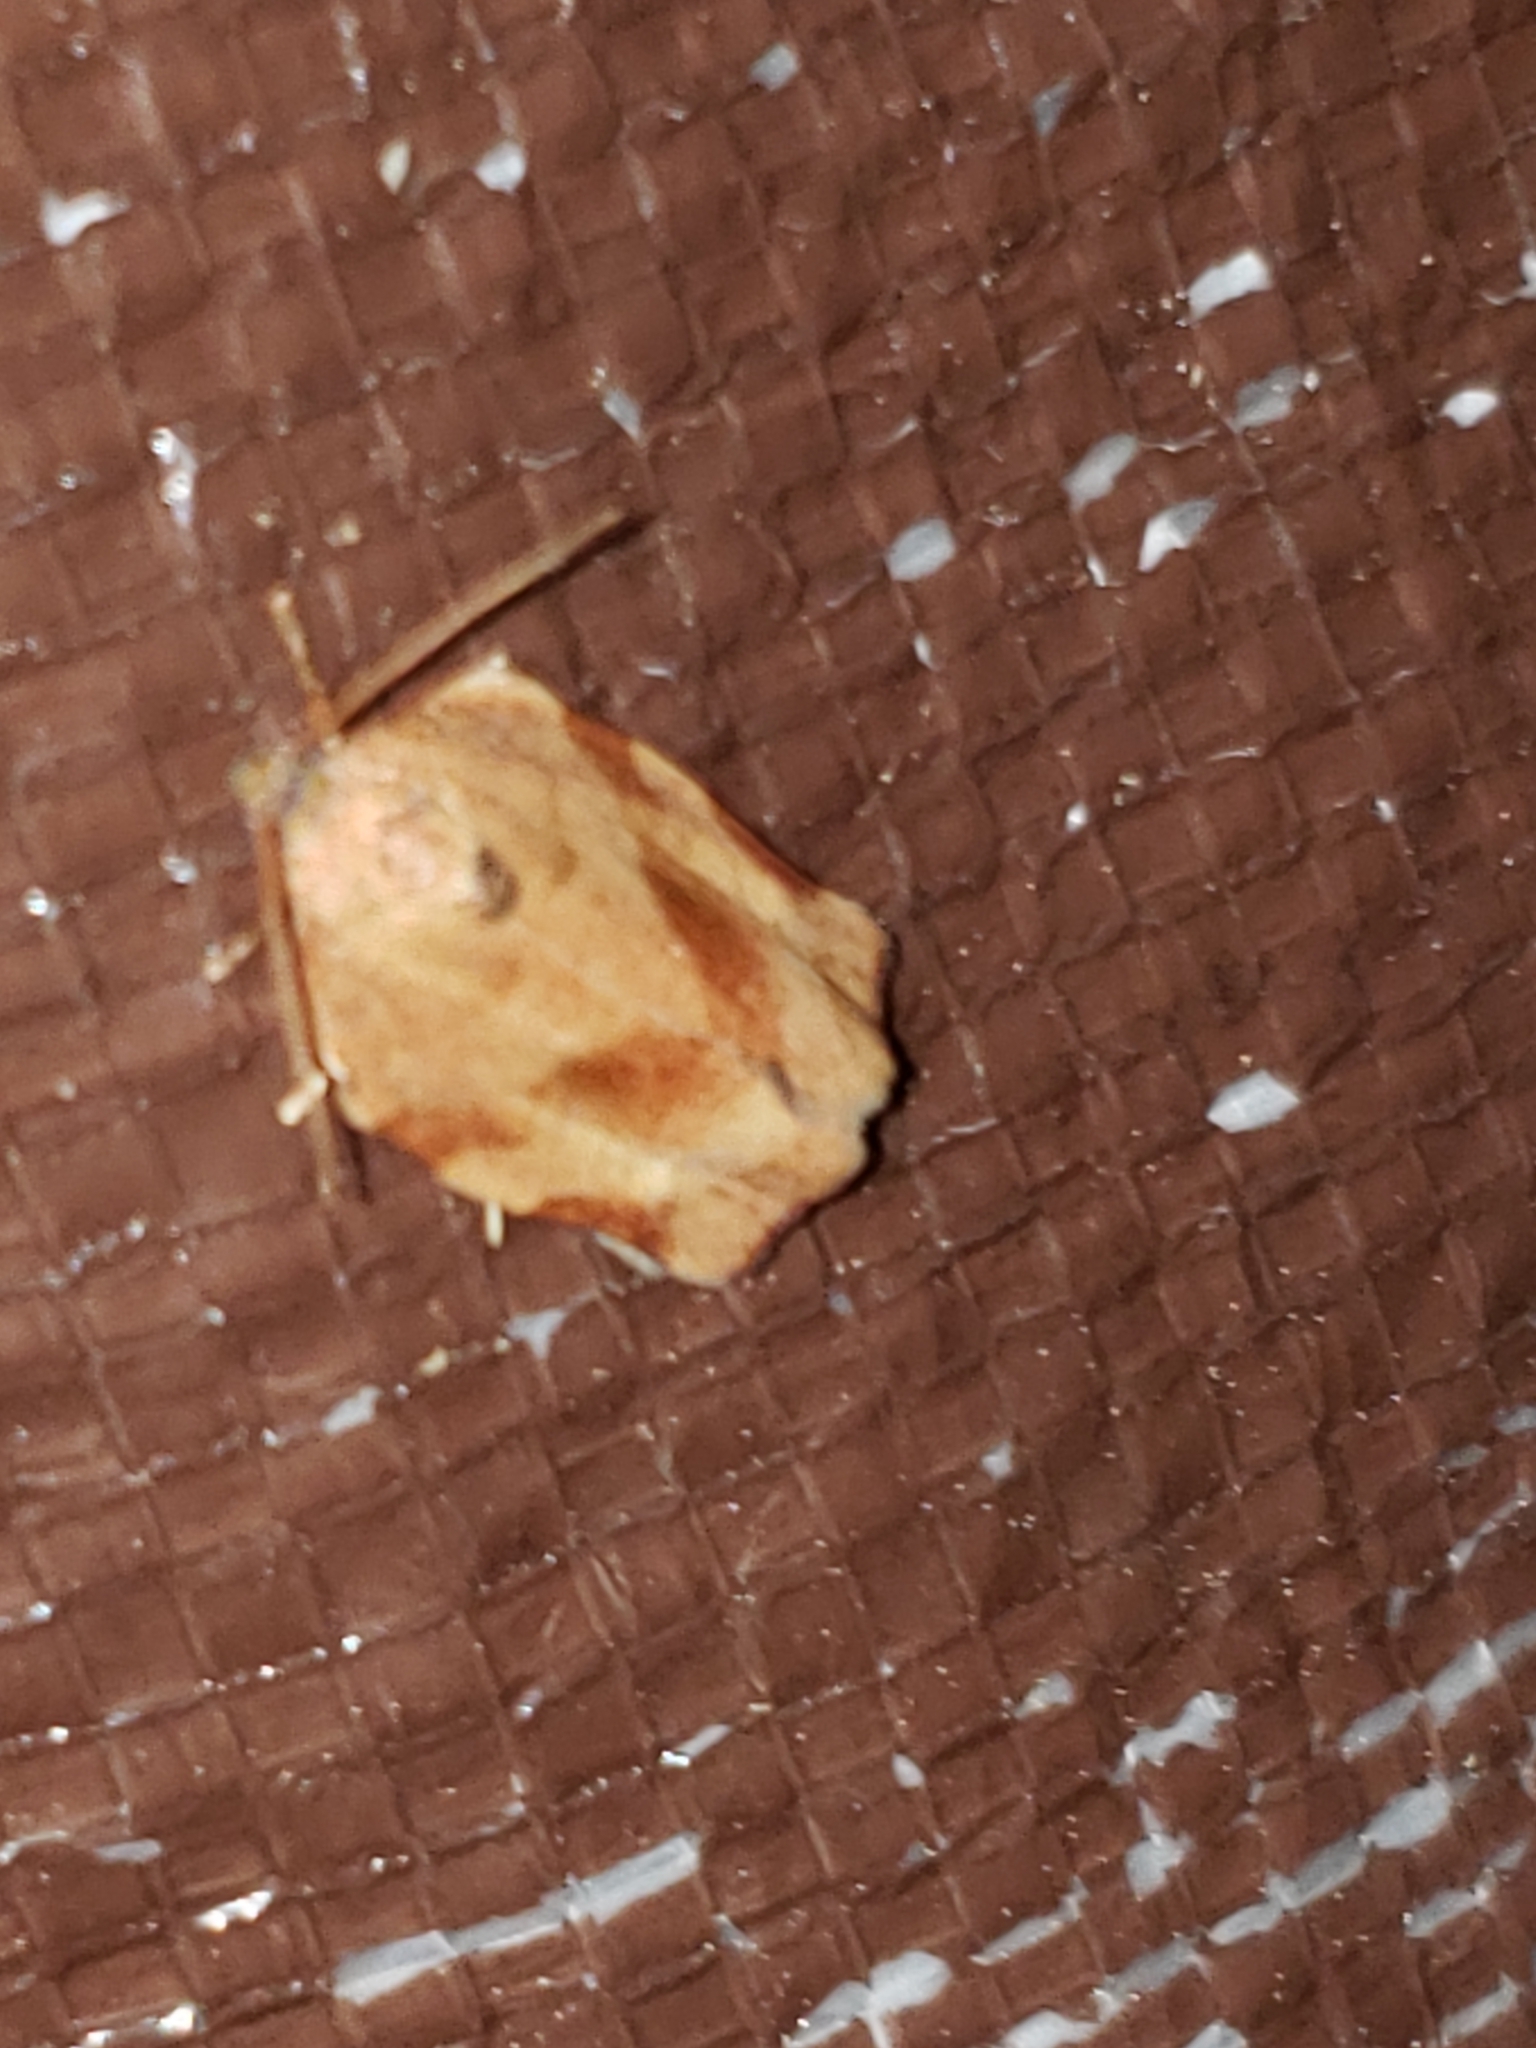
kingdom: Animalia
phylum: Arthropoda
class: Insecta
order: Lepidoptera
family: Tortricidae
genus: Choristoneura
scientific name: Choristoneura rosaceana
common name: Oblique-banded leafroller moth
